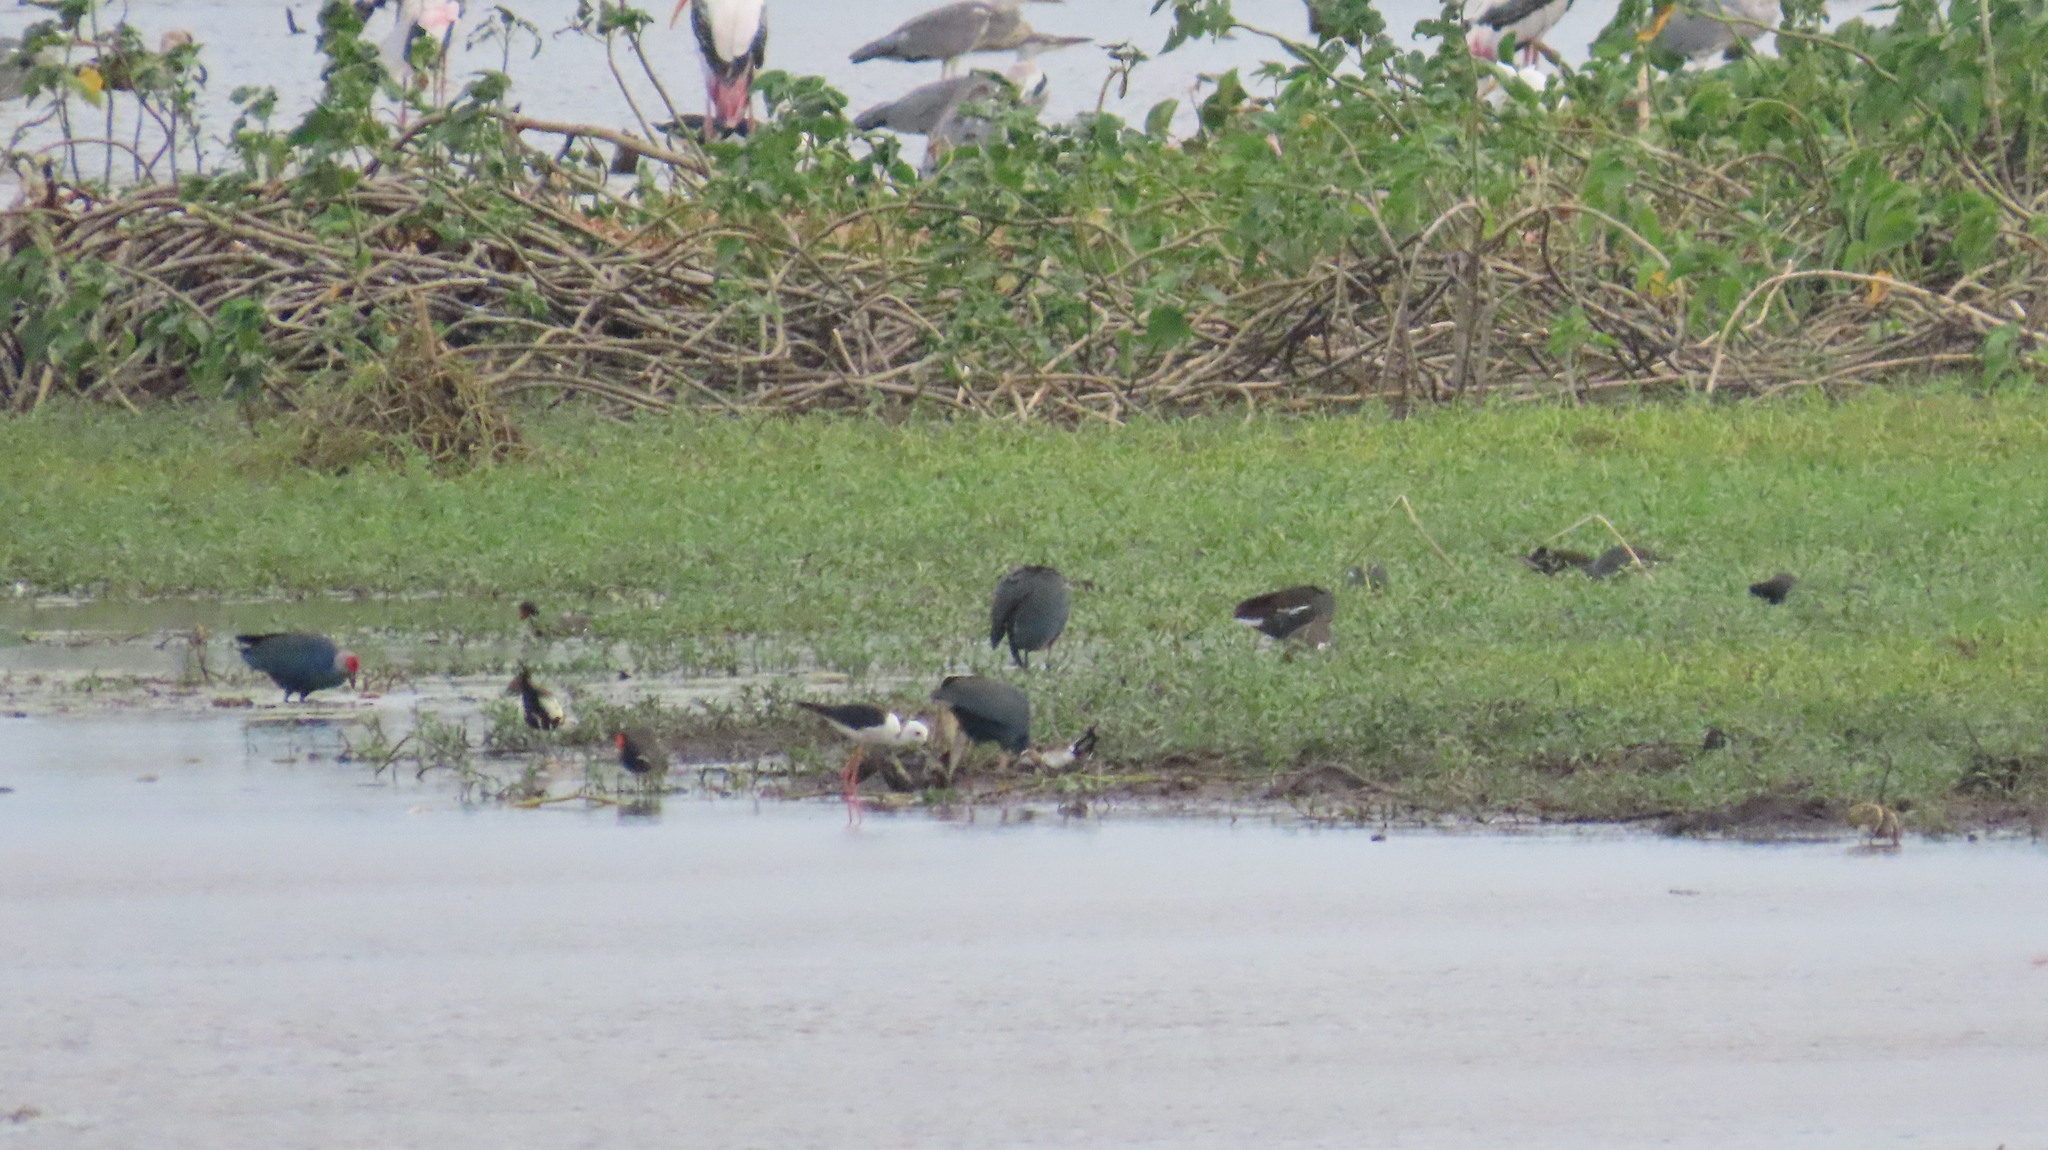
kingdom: Animalia
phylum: Chordata
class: Aves
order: Gruiformes
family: Rallidae
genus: Gallinula
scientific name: Gallinula chloropus
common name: Common moorhen
